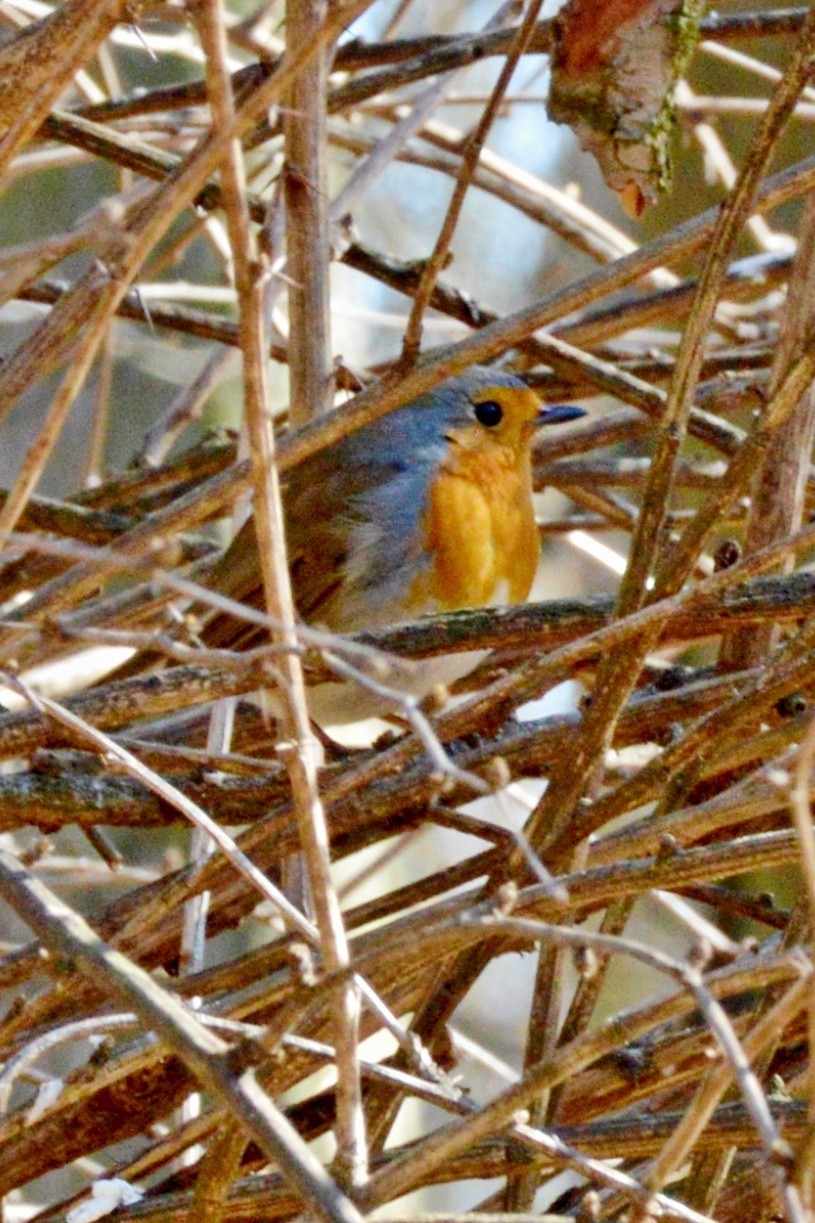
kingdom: Animalia
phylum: Chordata
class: Aves
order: Passeriformes
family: Muscicapidae
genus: Erithacus
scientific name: Erithacus rubecula
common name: European robin
